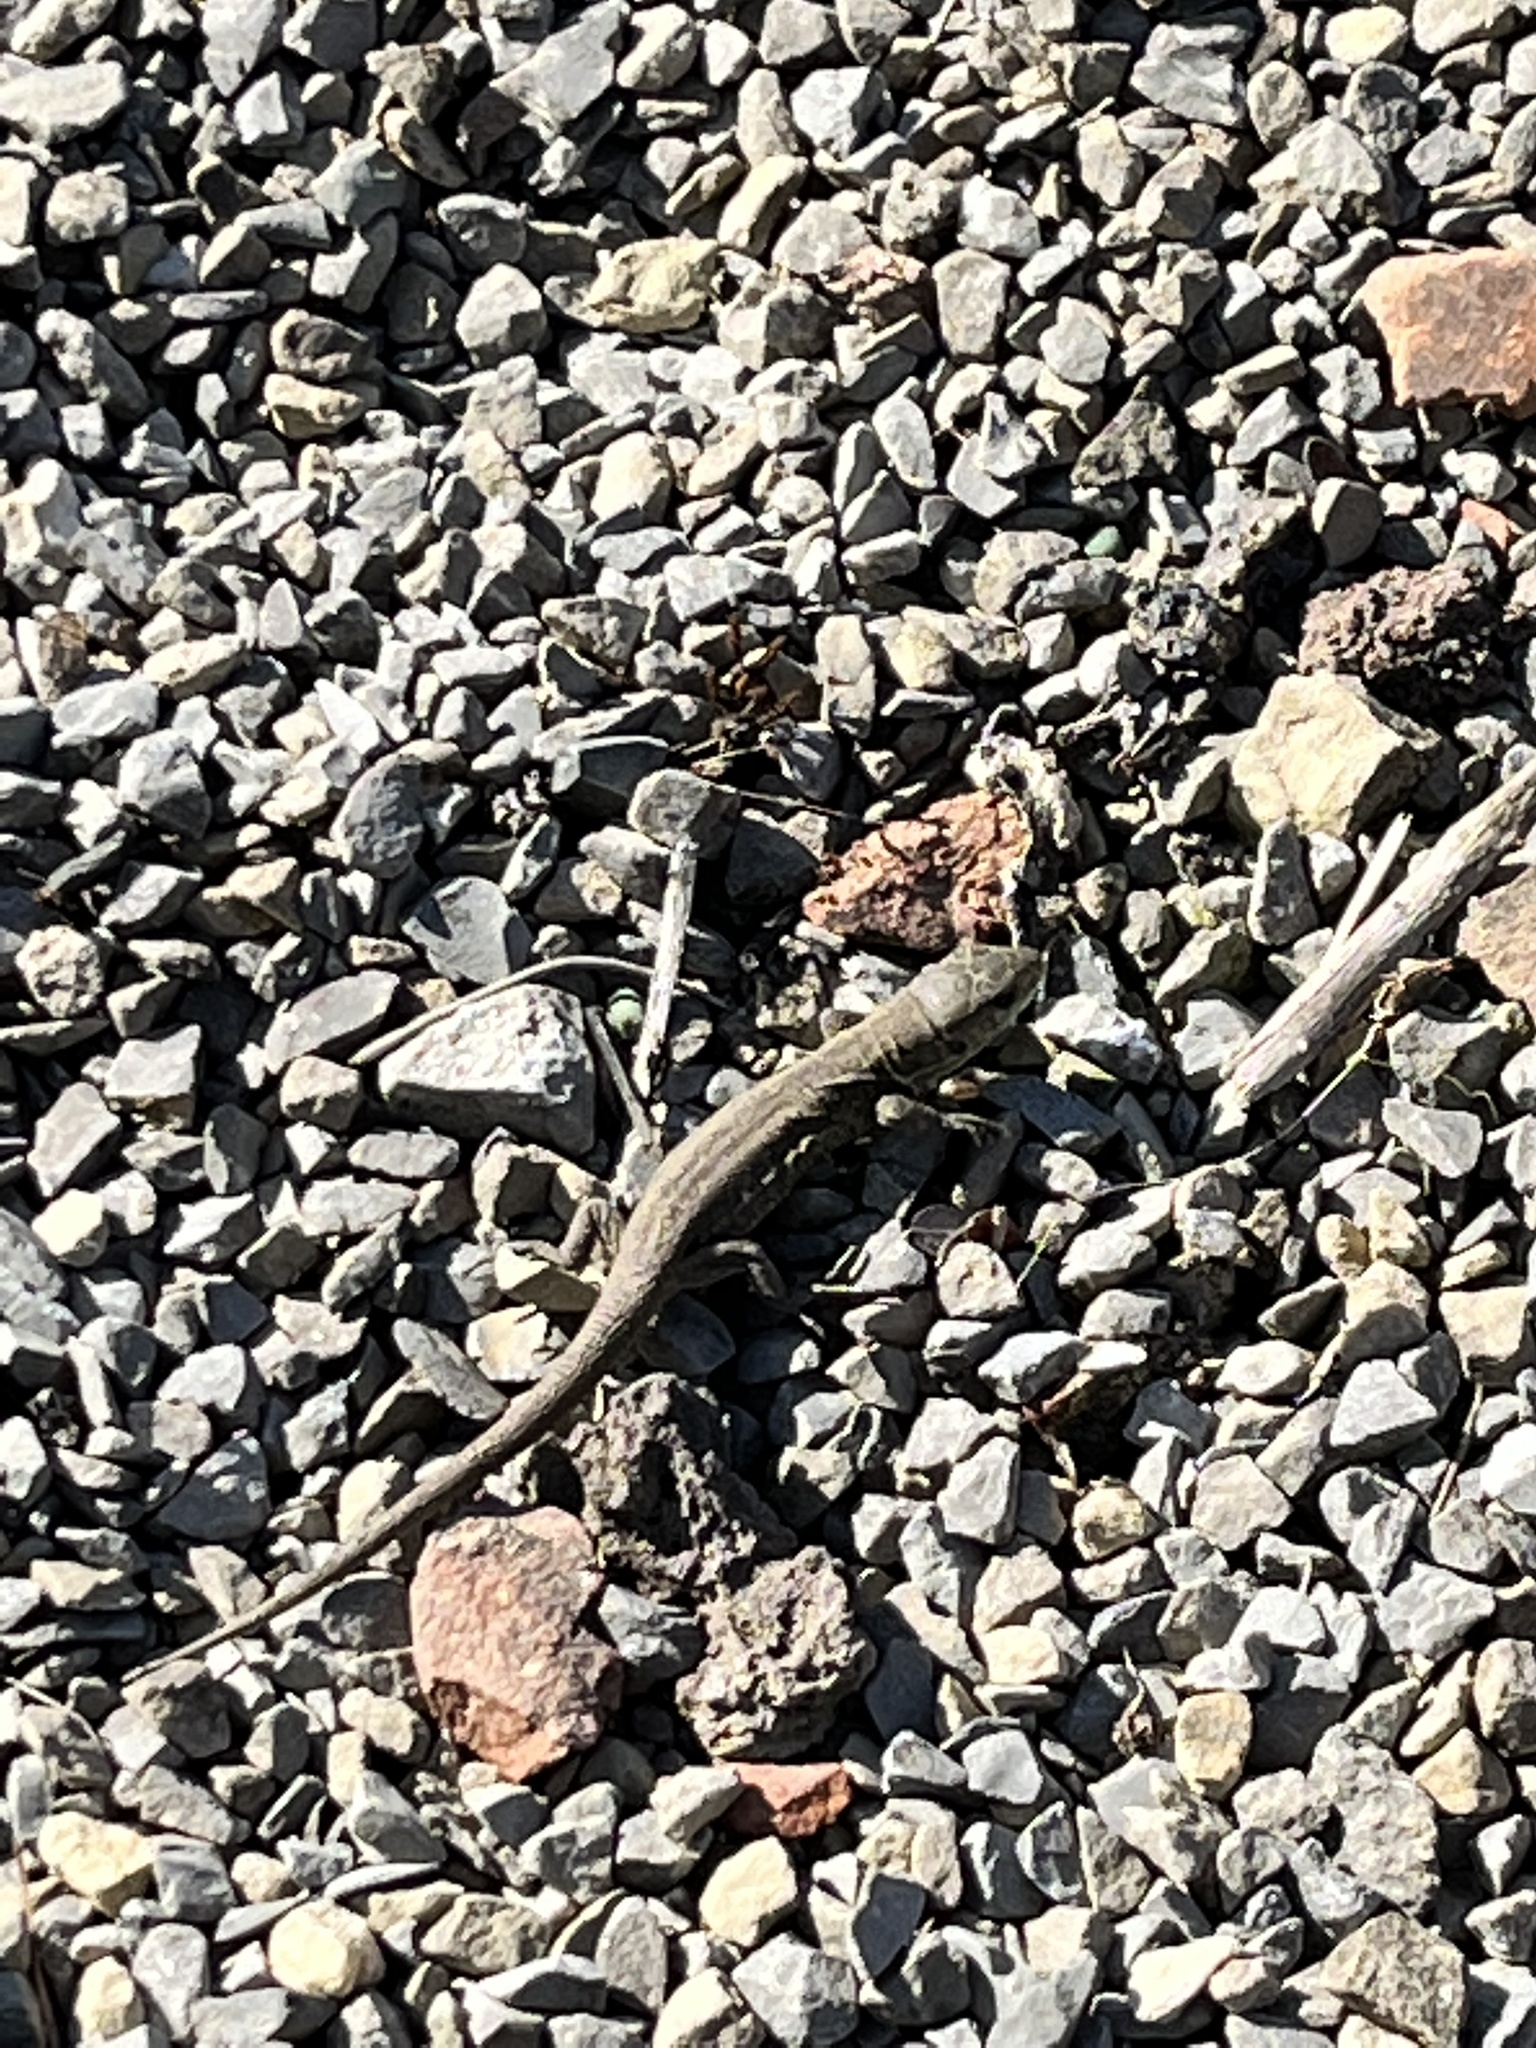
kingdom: Animalia
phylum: Chordata
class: Squamata
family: Lacertidae
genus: Lacerta
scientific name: Lacerta agilis
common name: Sand lizard
